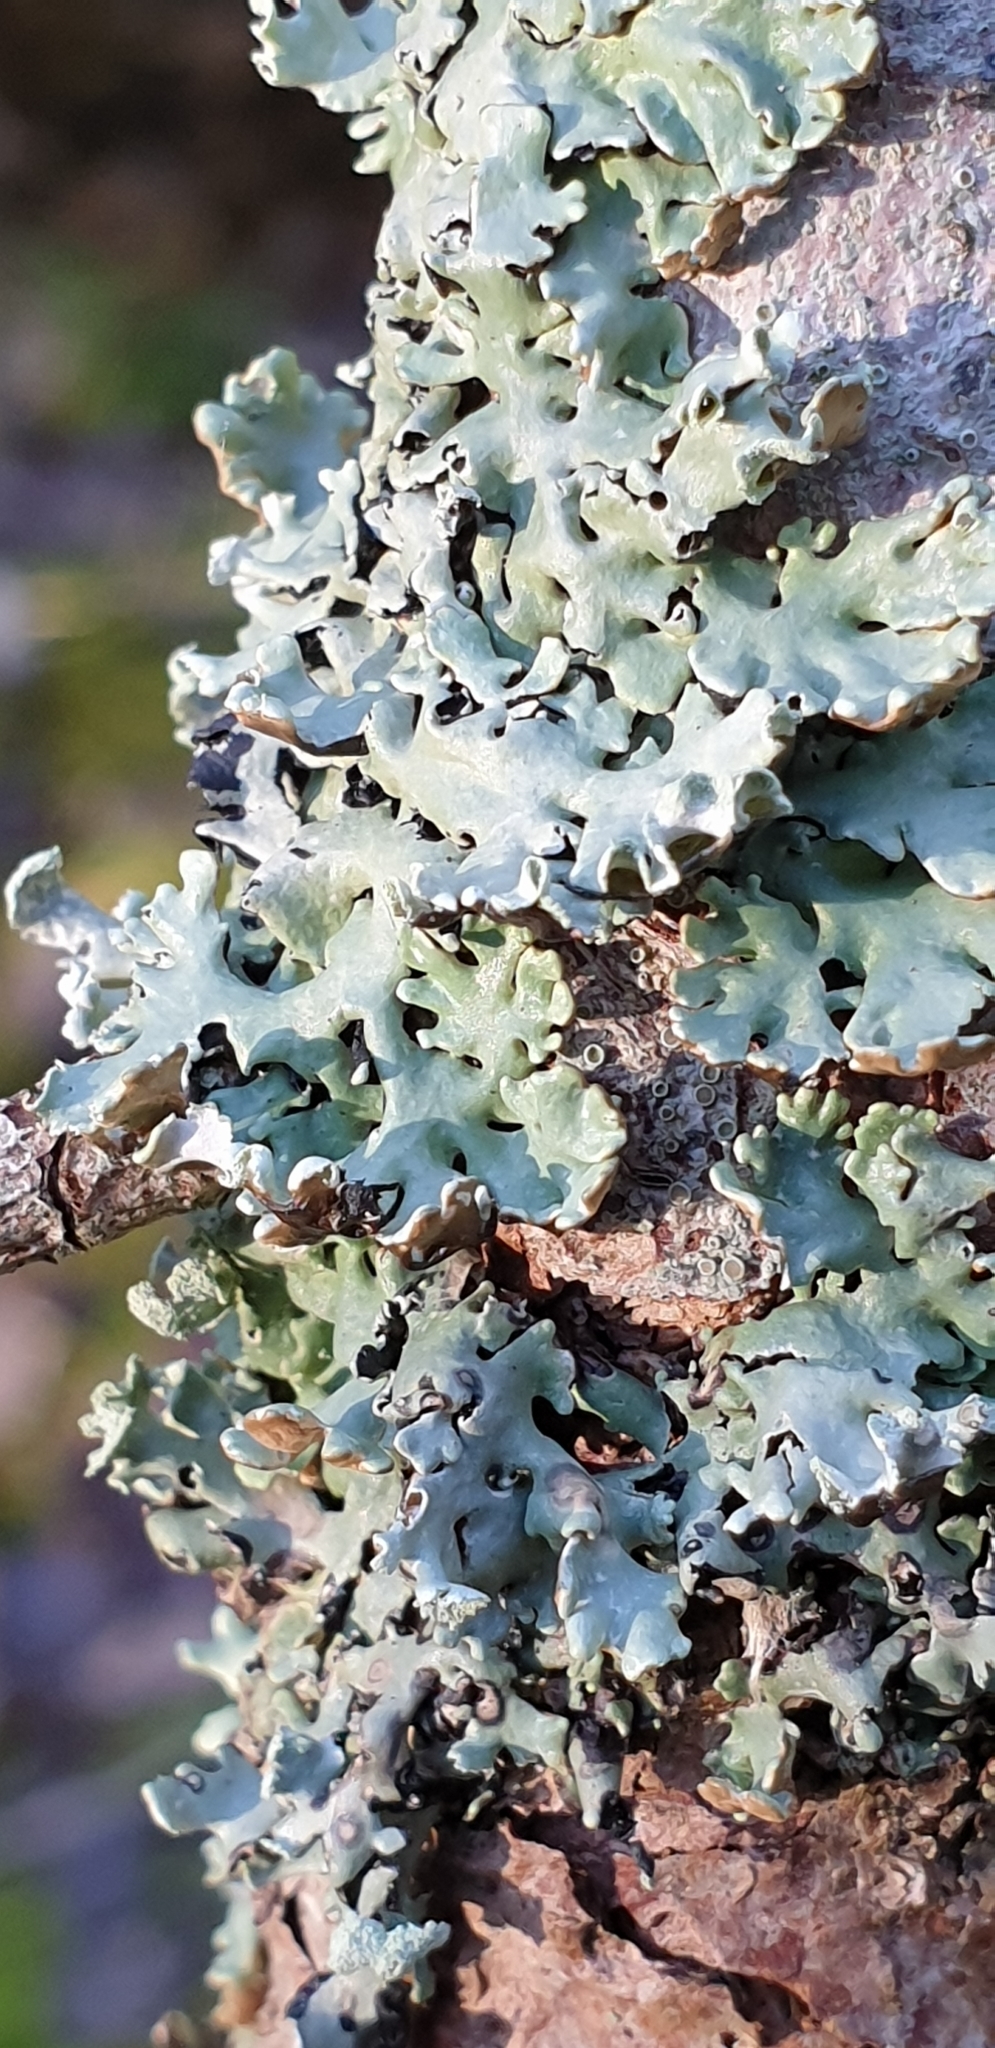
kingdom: Fungi
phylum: Ascomycota
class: Lecanoromycetes
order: Lecanorales
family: Parmeliaceae
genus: Hypogymnia
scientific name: Hypogymnia physodes
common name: Dark crottle
